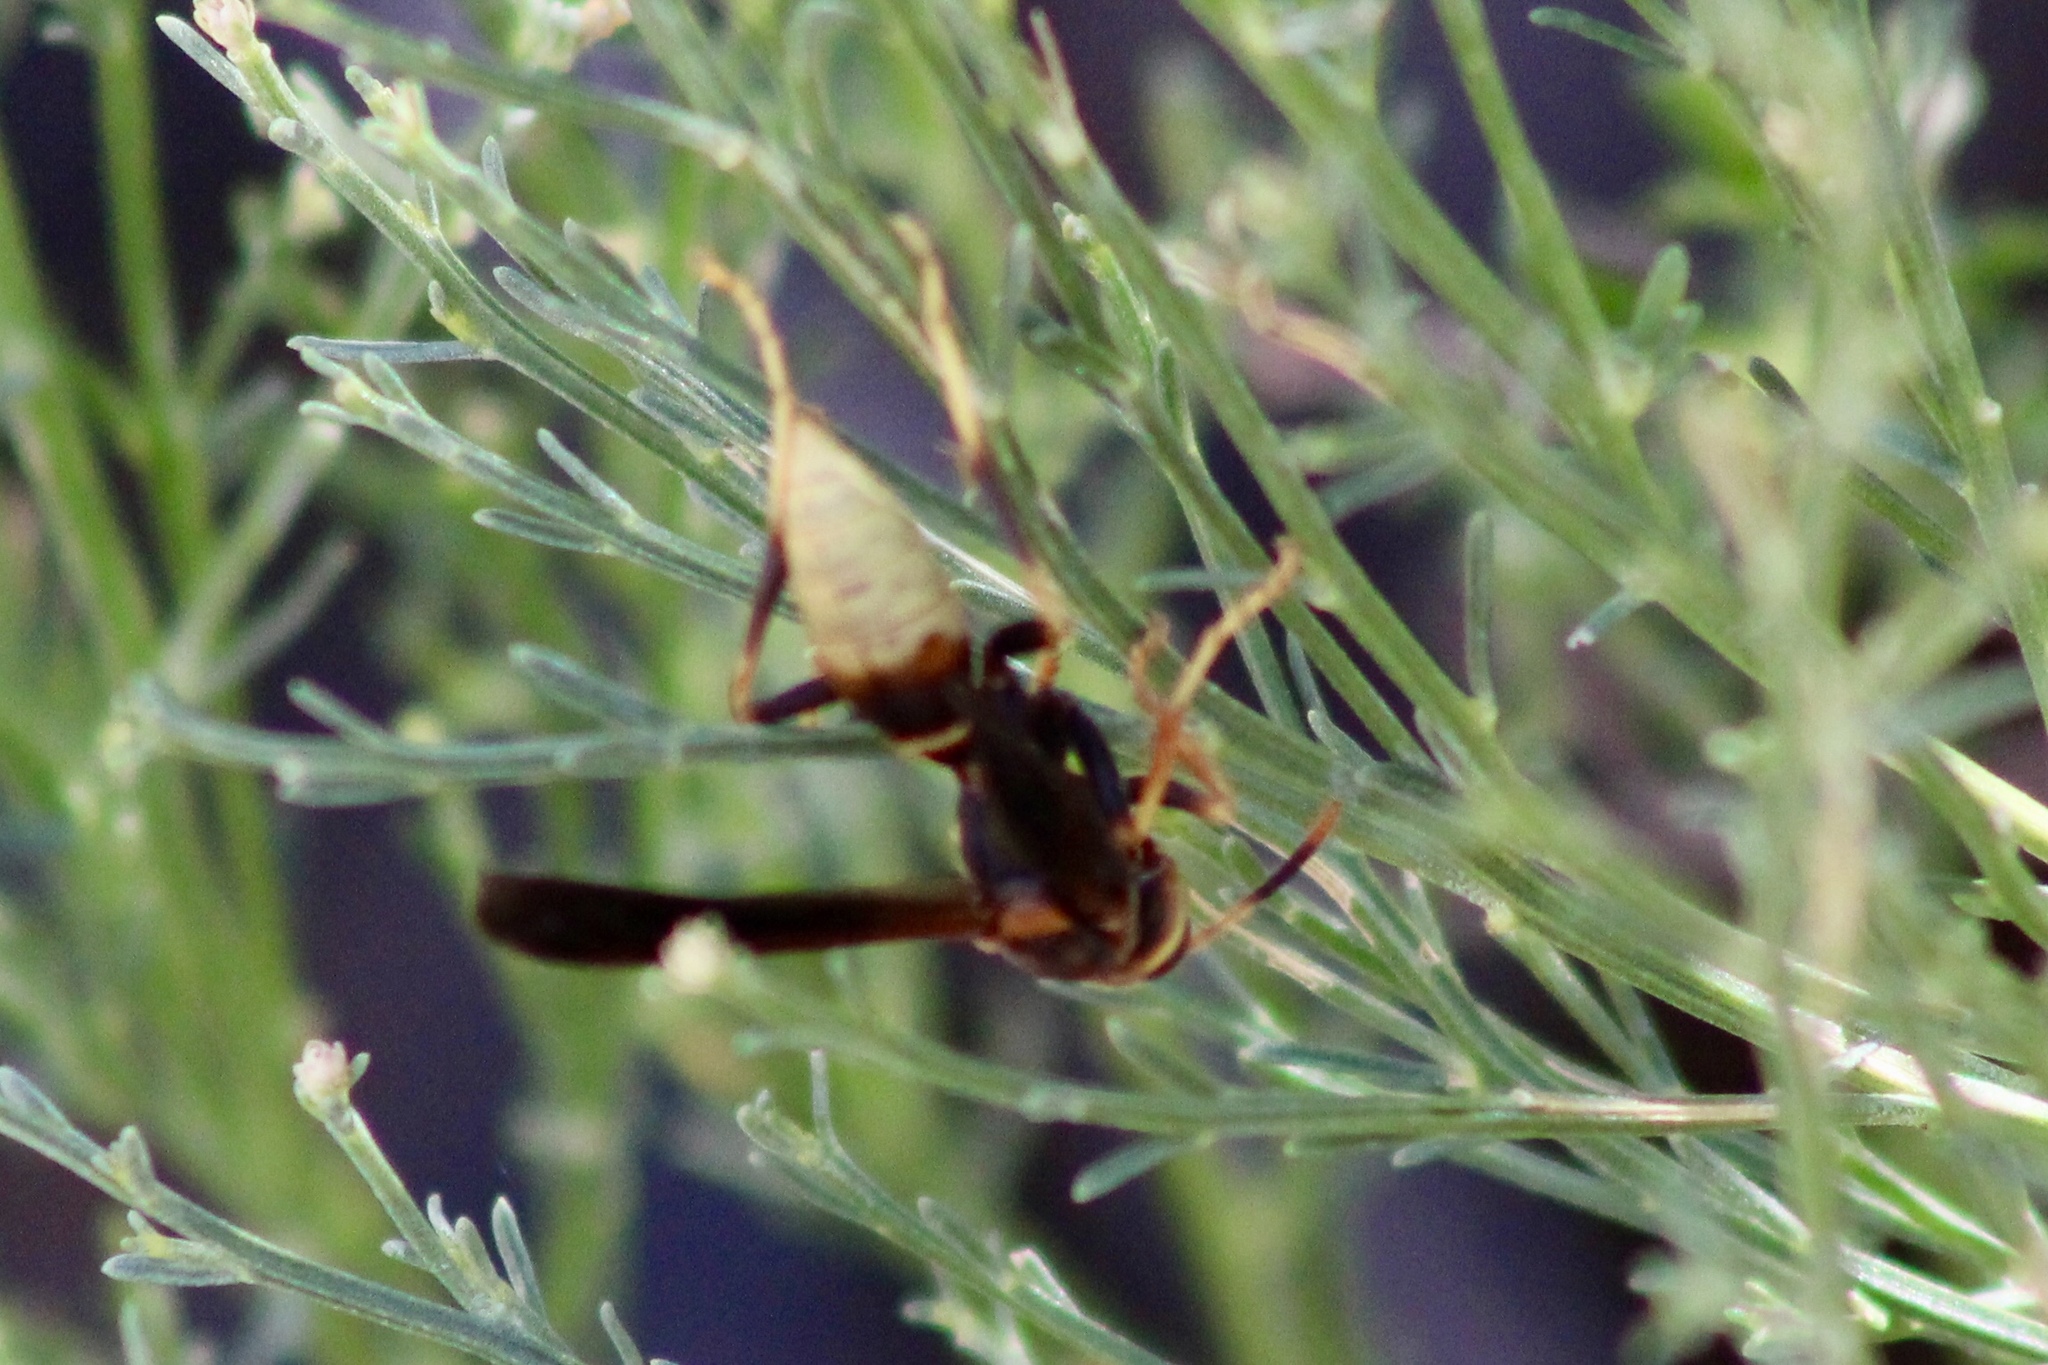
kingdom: Animalia
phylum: Arthropoda
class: Insecta
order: Hymenoptera
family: Eumenidae
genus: Polistes
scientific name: Polistes comanchus
